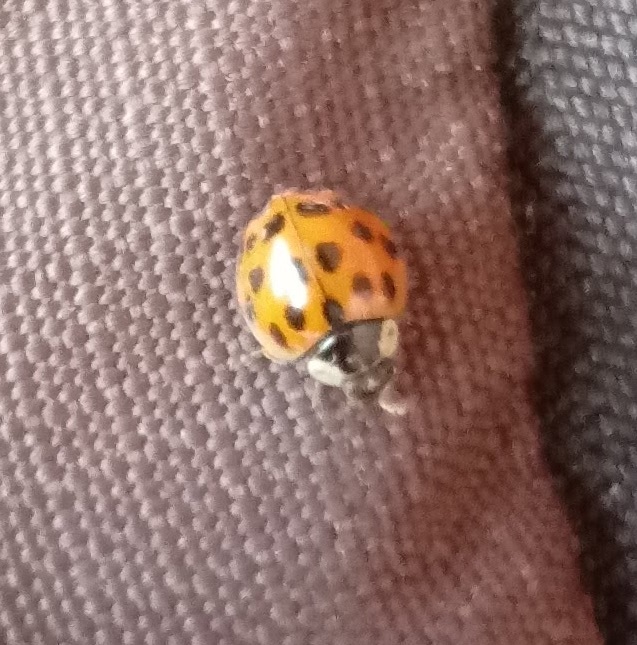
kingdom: Animalia
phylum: Arthropoda
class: Insecta
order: Coleoptera
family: Coccinellidae
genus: Harmonia
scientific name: Harmonia axyridis
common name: Harlequin ladybird
